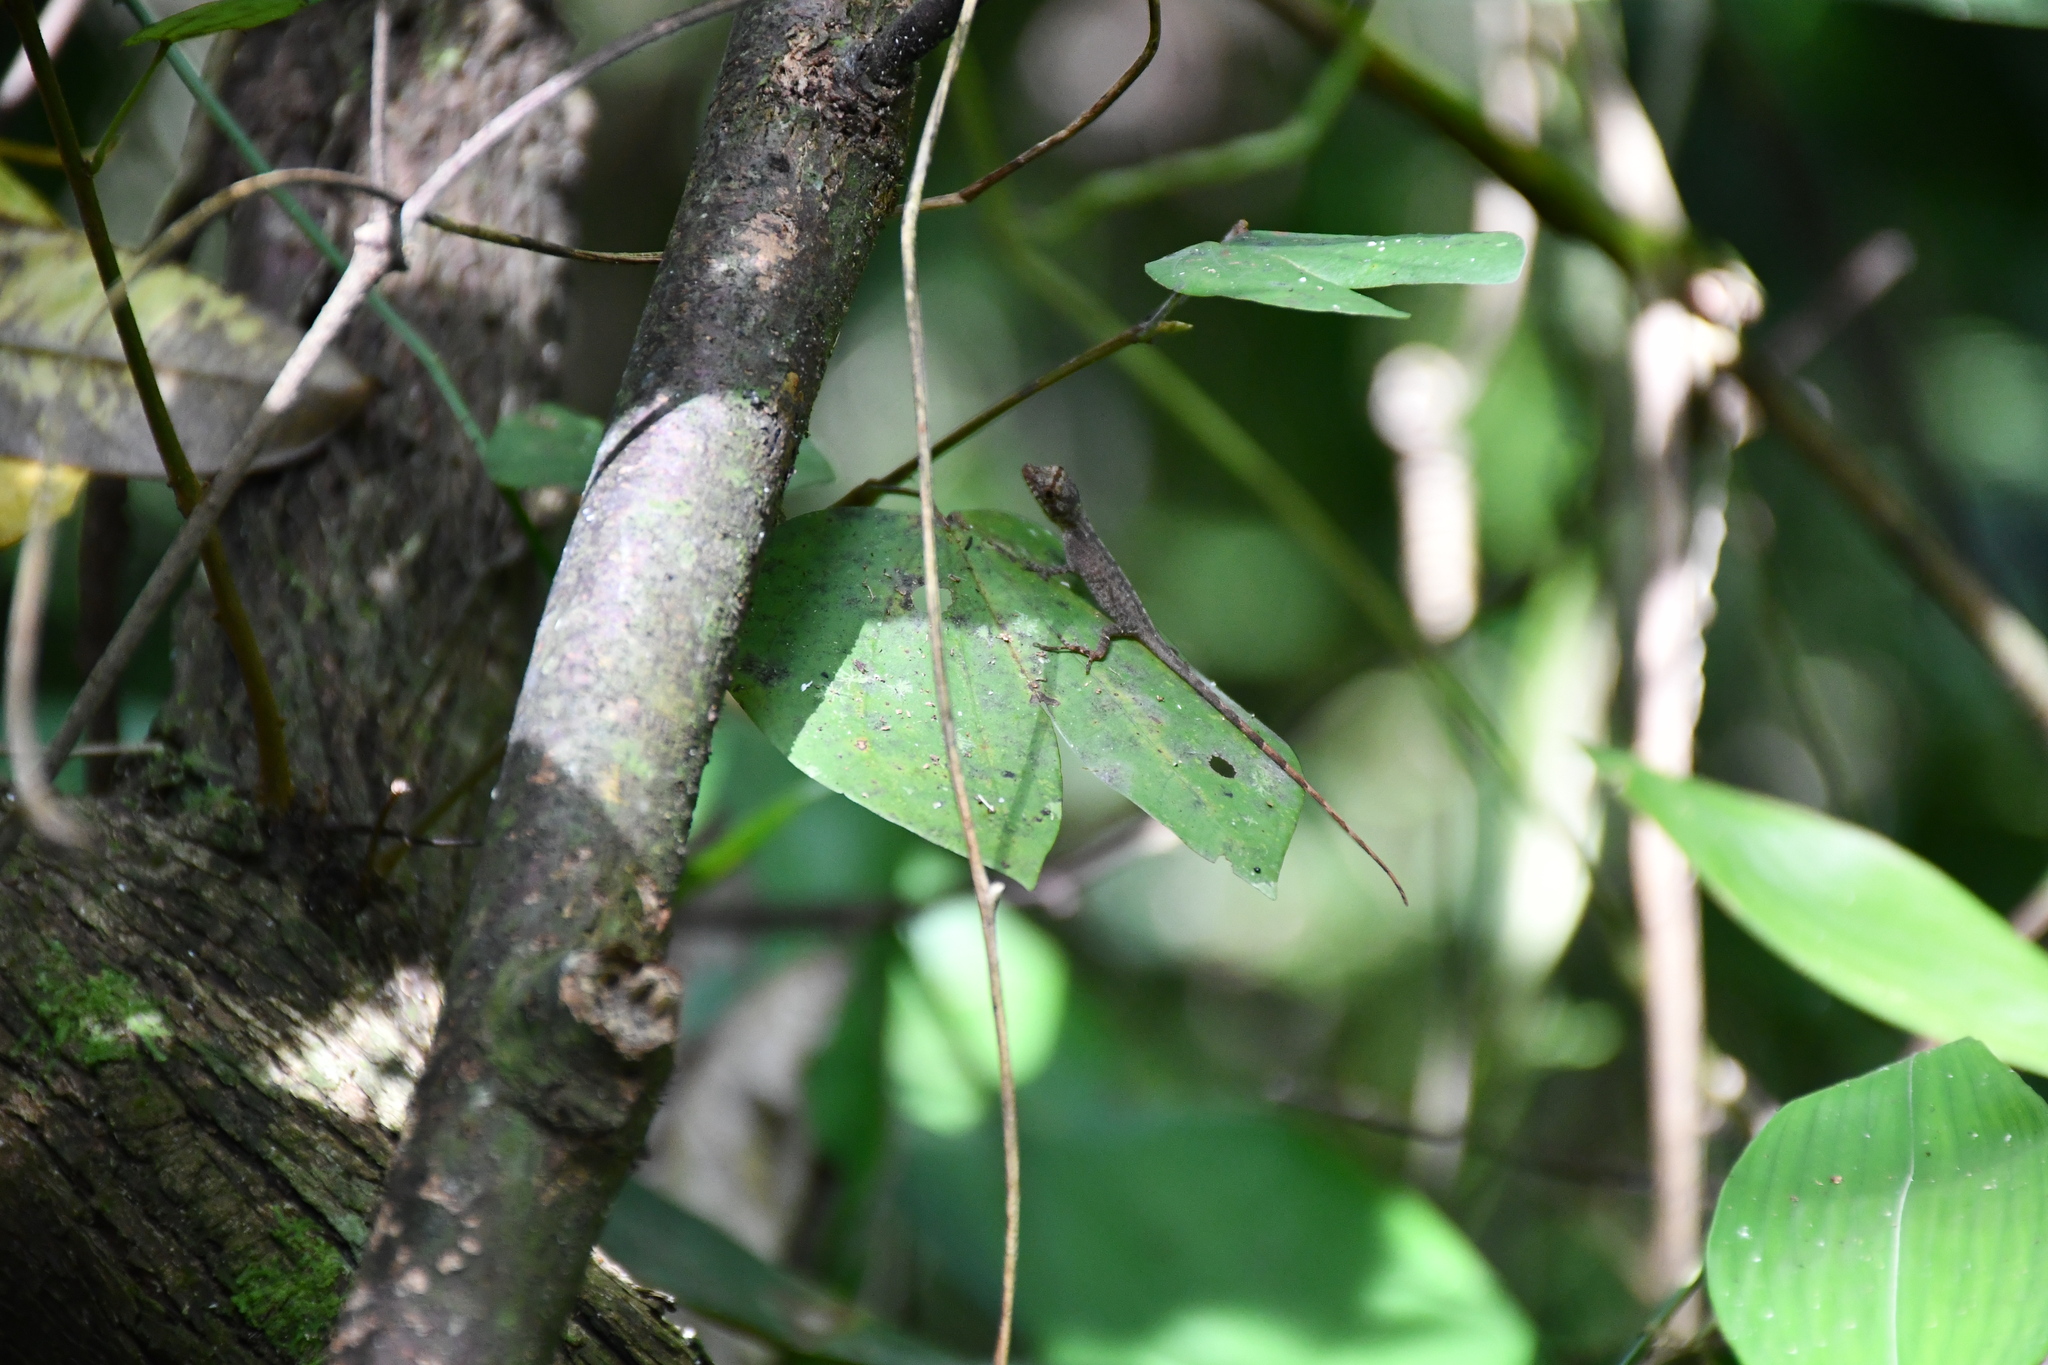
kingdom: Animalia
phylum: Chordata
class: Squamata
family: Dactyloidae
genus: Anolis
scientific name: Anolis fuscoauratus
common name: Brown-eared anole
